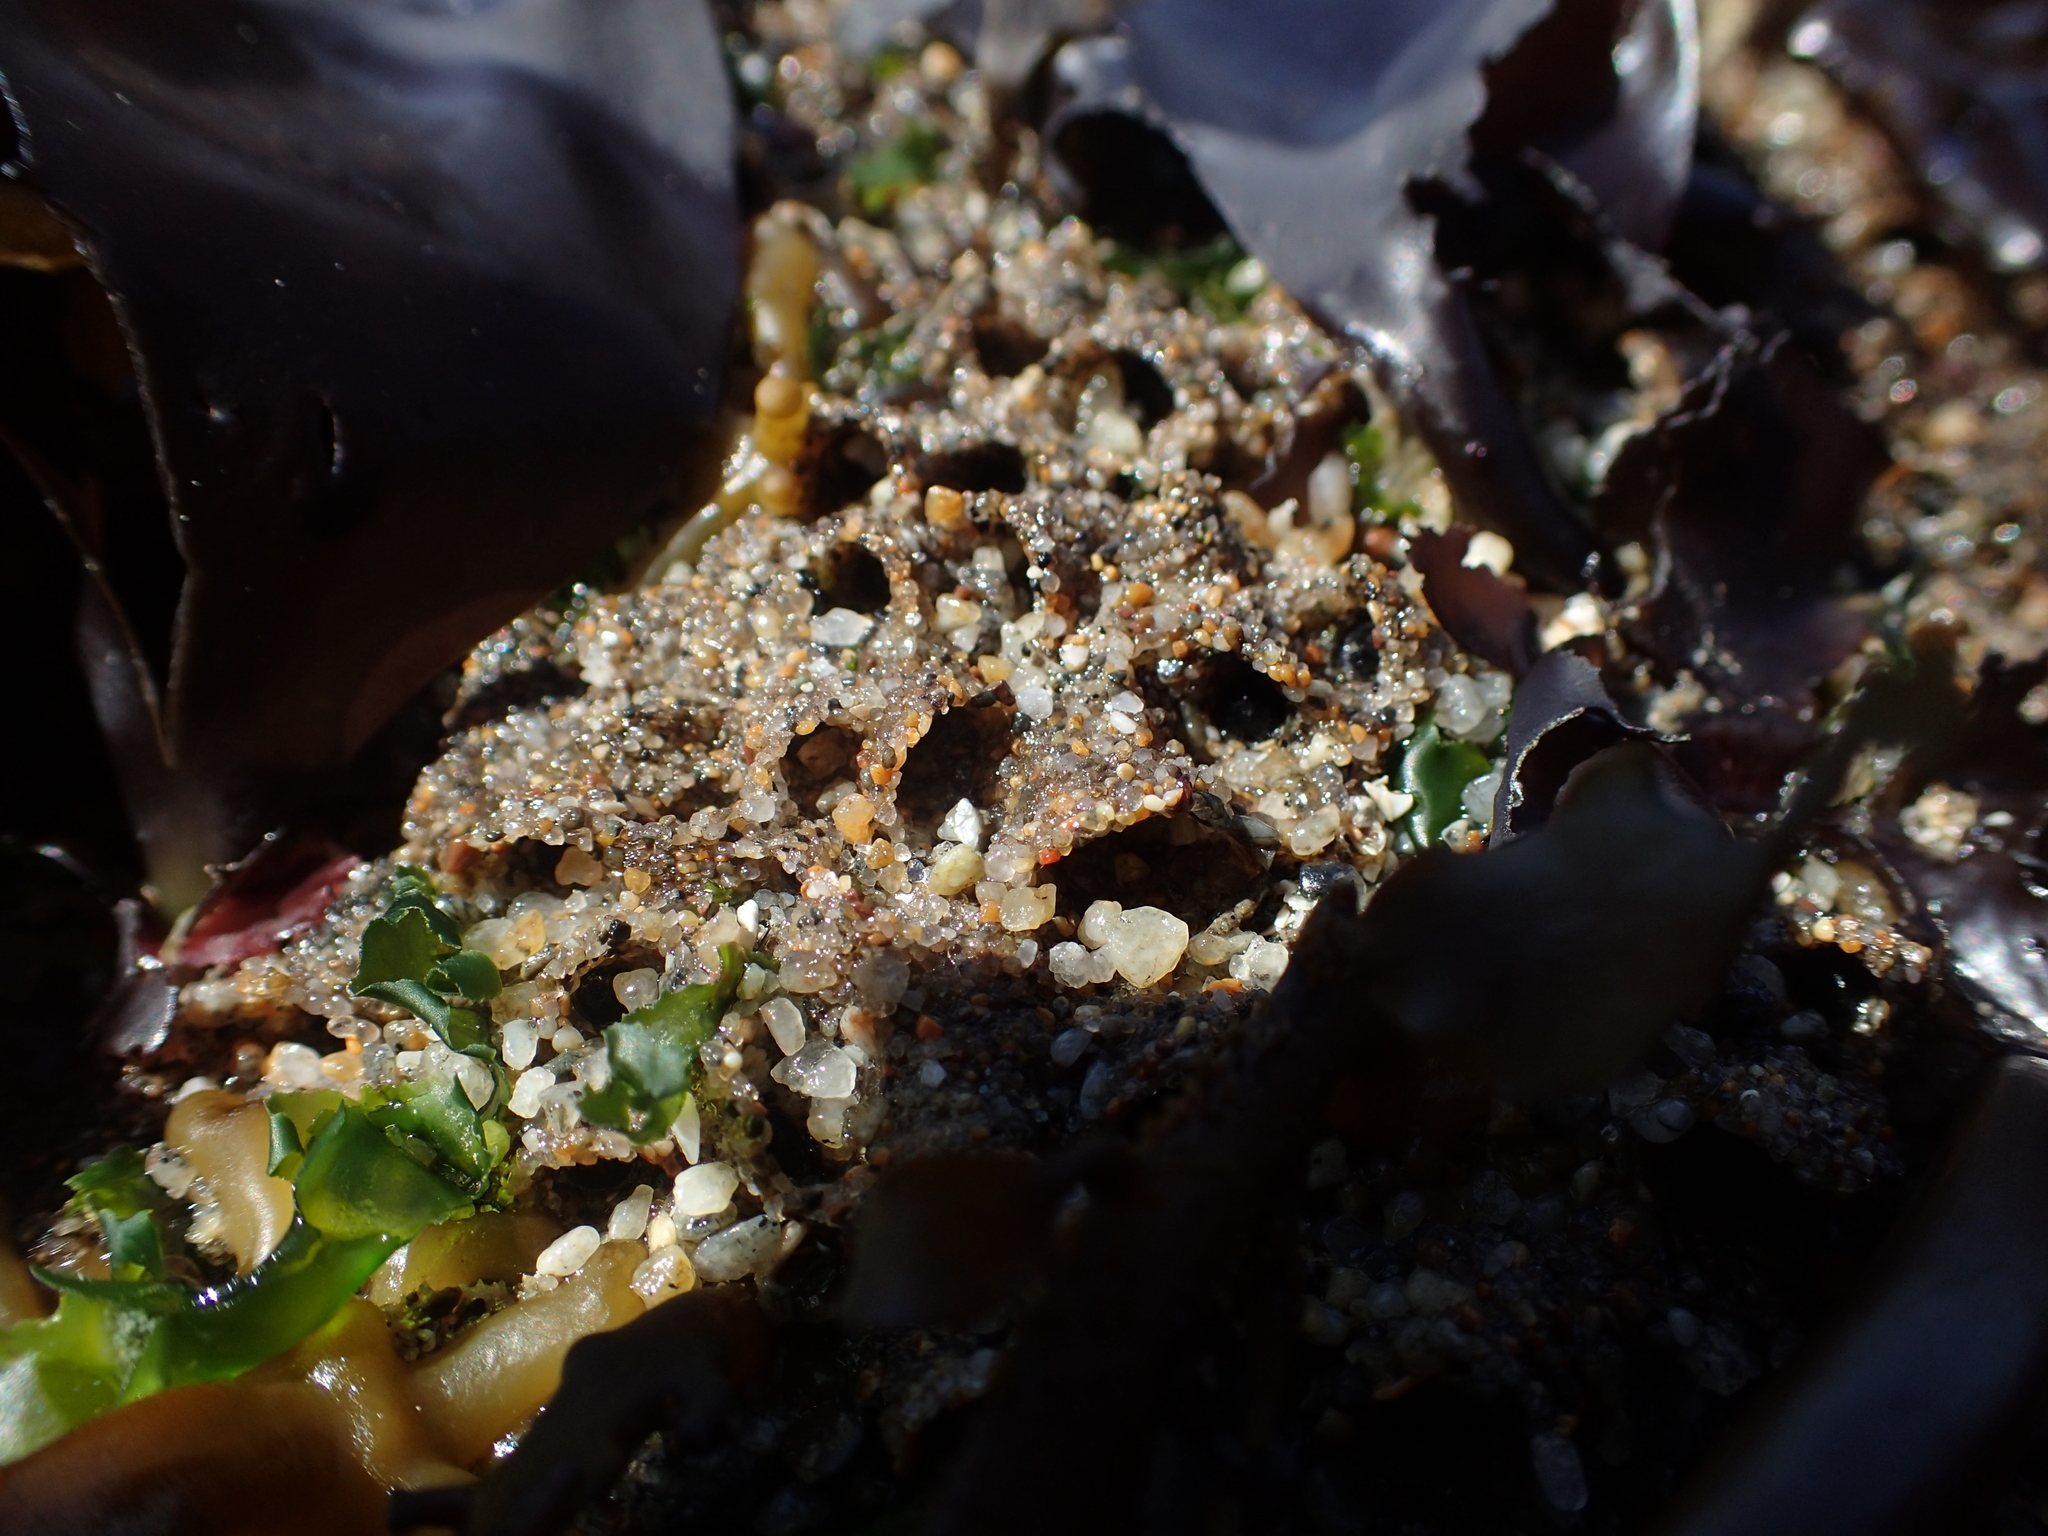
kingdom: Animalia
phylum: Annelida
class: Polychaeta
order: Sabellida
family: Sabellariidae
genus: Phragmatopoma
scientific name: Phragmatopoma californica
